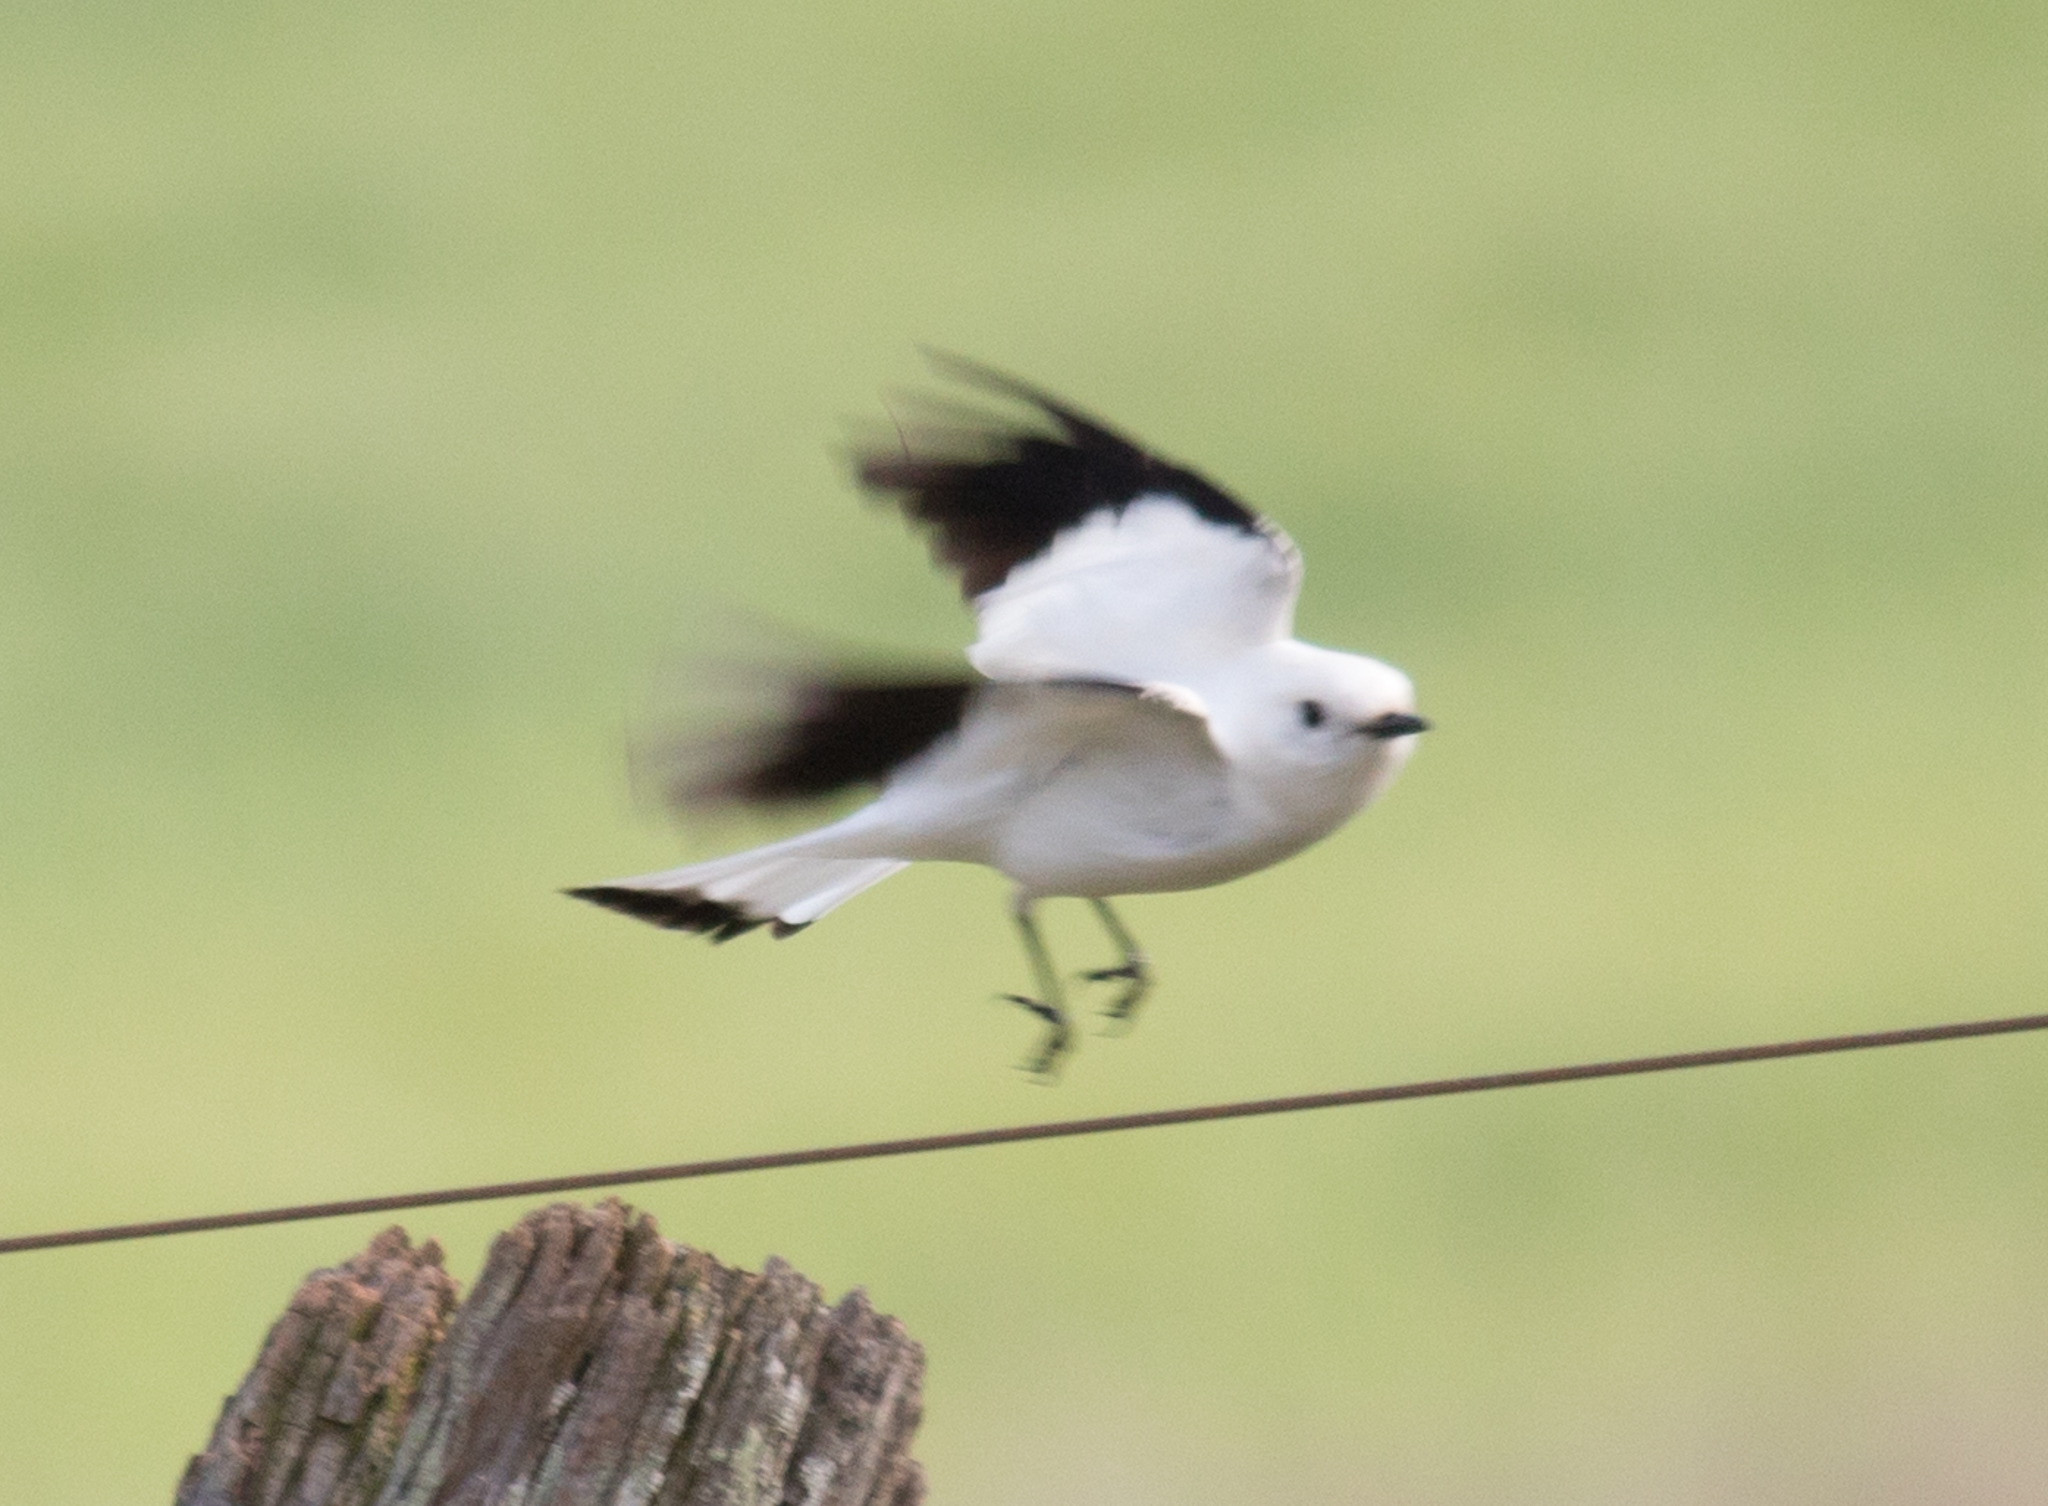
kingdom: Animalia
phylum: Chordata
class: Aves
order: Passeriformes
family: Tyrannidae
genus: Xolmis
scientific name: Xolmis irupero
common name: White monjita
